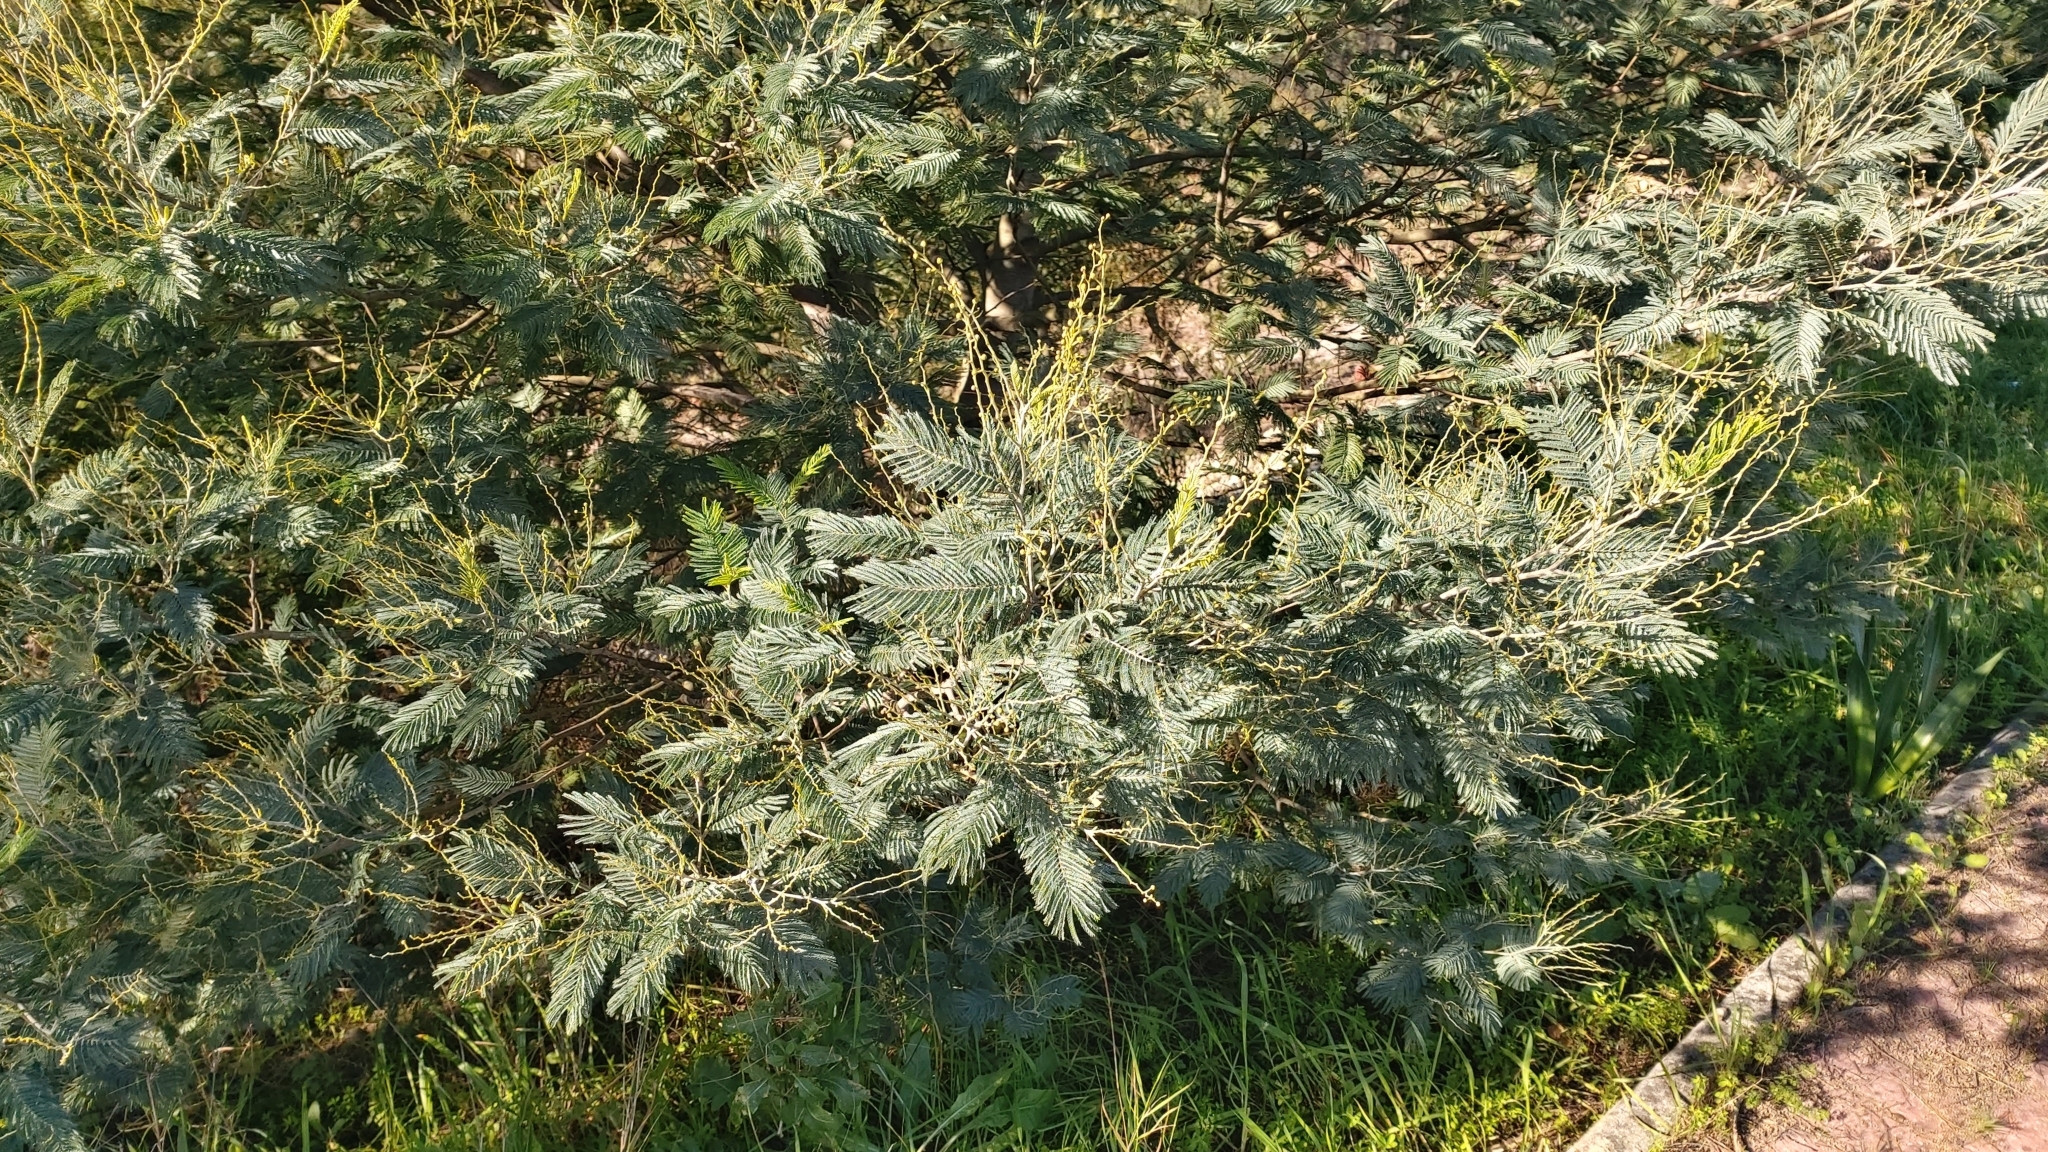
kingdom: Plantae
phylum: Tracheophyta
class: Magnoliopsida
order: Fabales
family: Fabaceae
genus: Acacia
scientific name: Acacia dealbata
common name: Silver wattle
